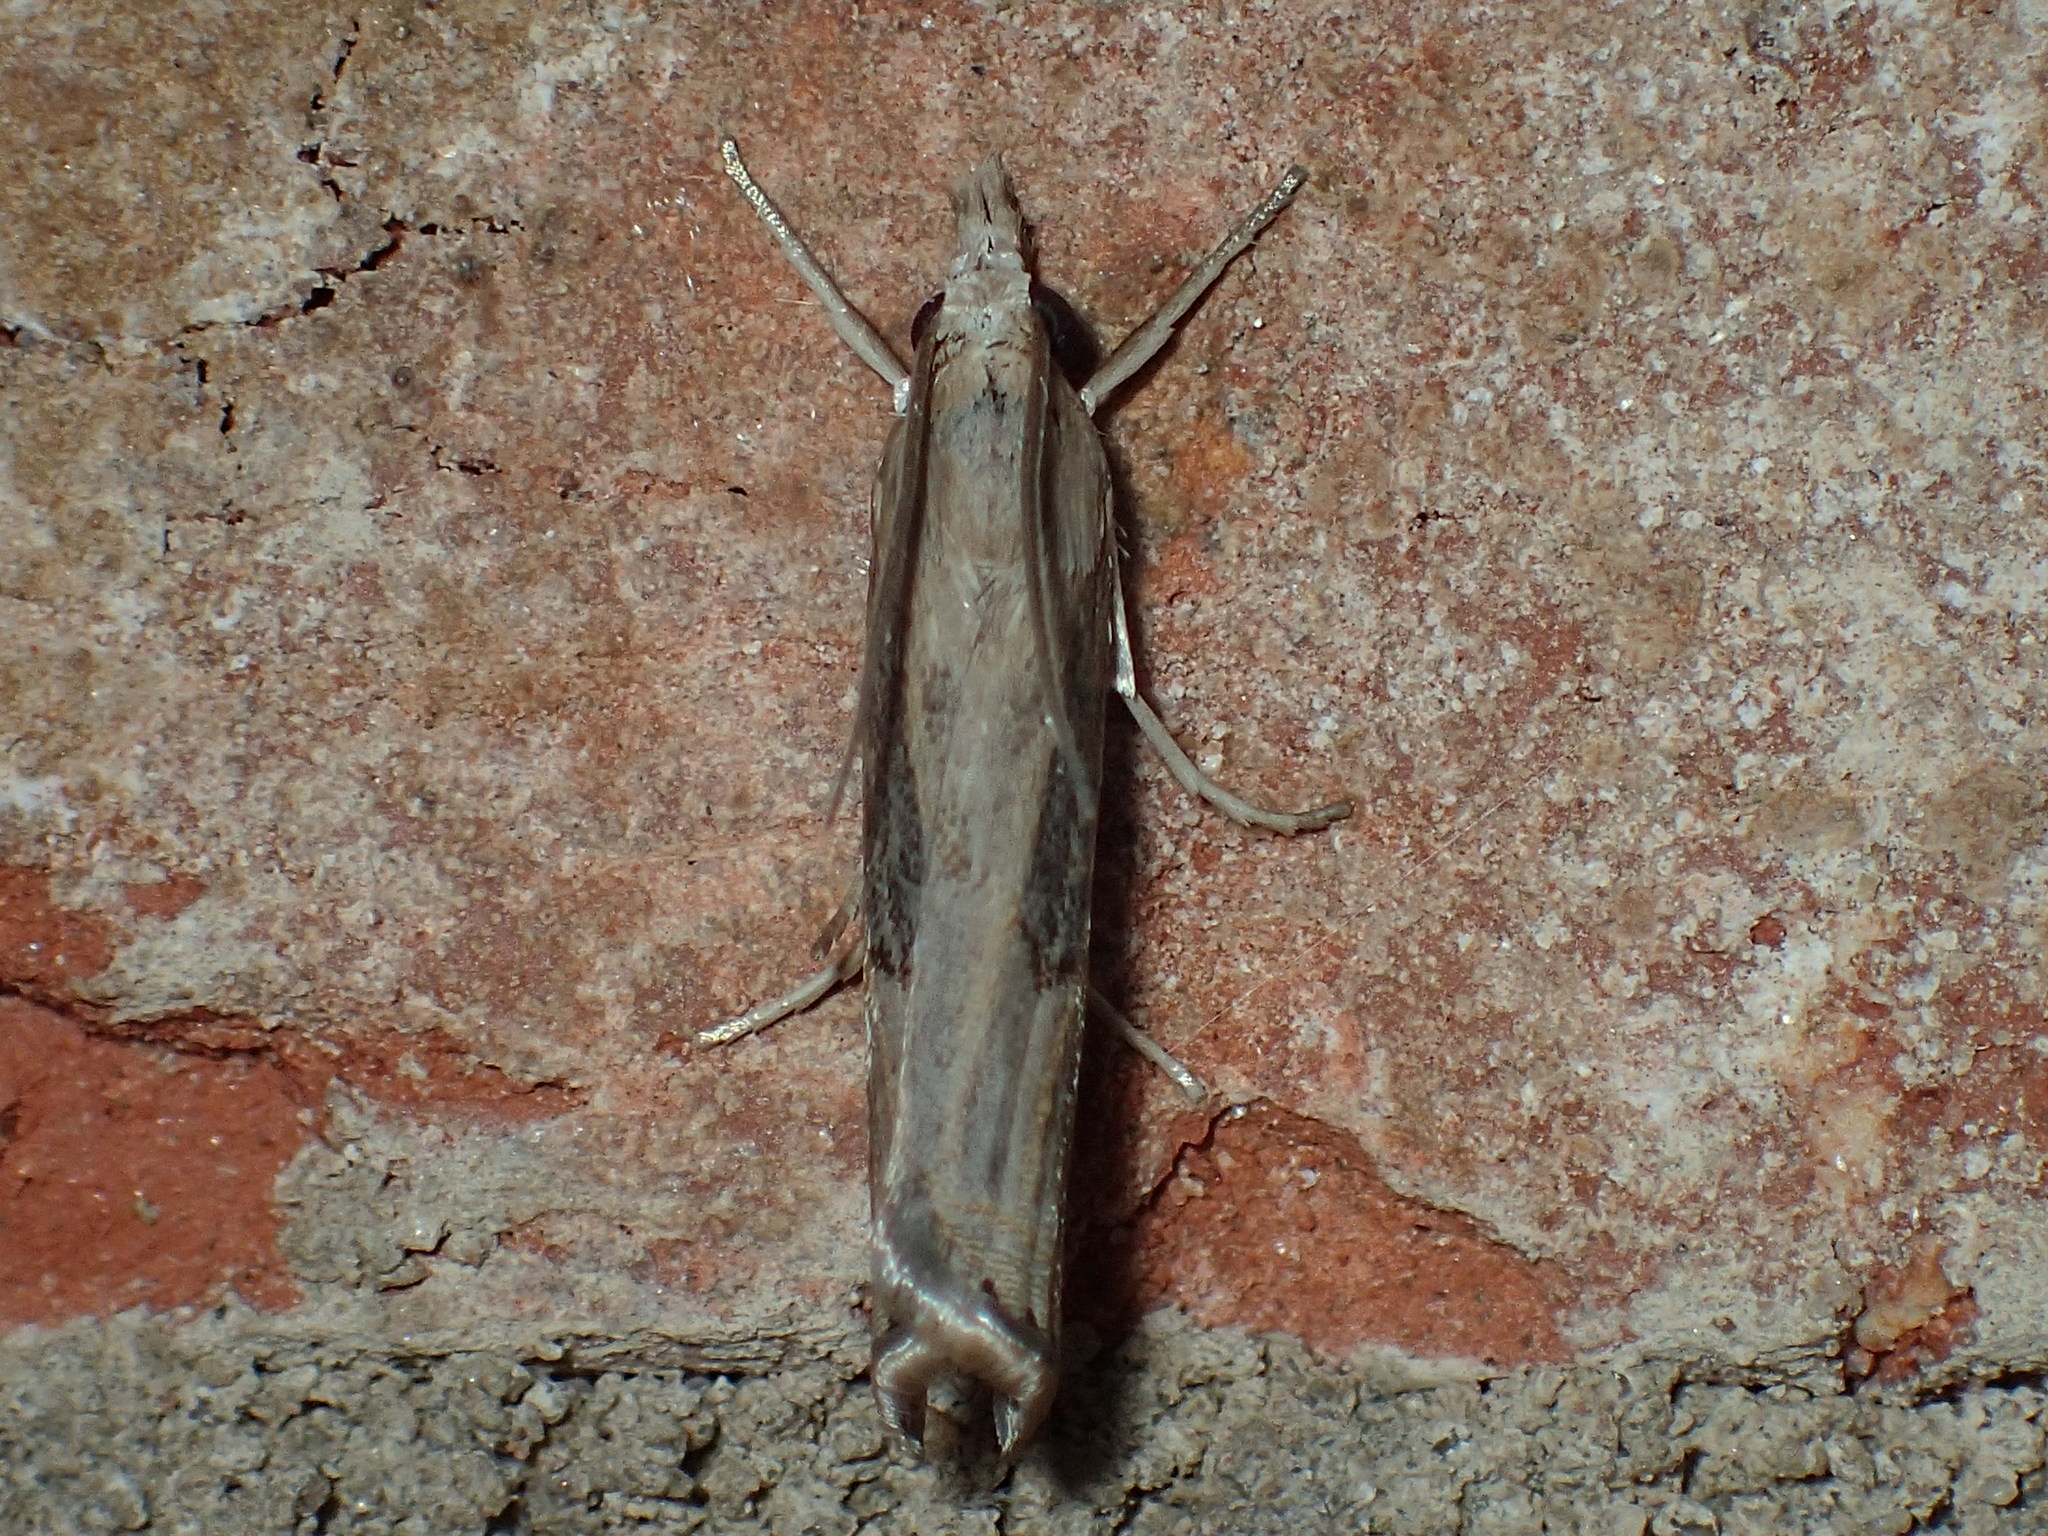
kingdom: Animalia
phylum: Arthropoda
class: Insecta
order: Lepidoptera
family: Crambidae
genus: Parapediasia
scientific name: Parapediasia teterellus
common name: Bluegrass webworm moth
